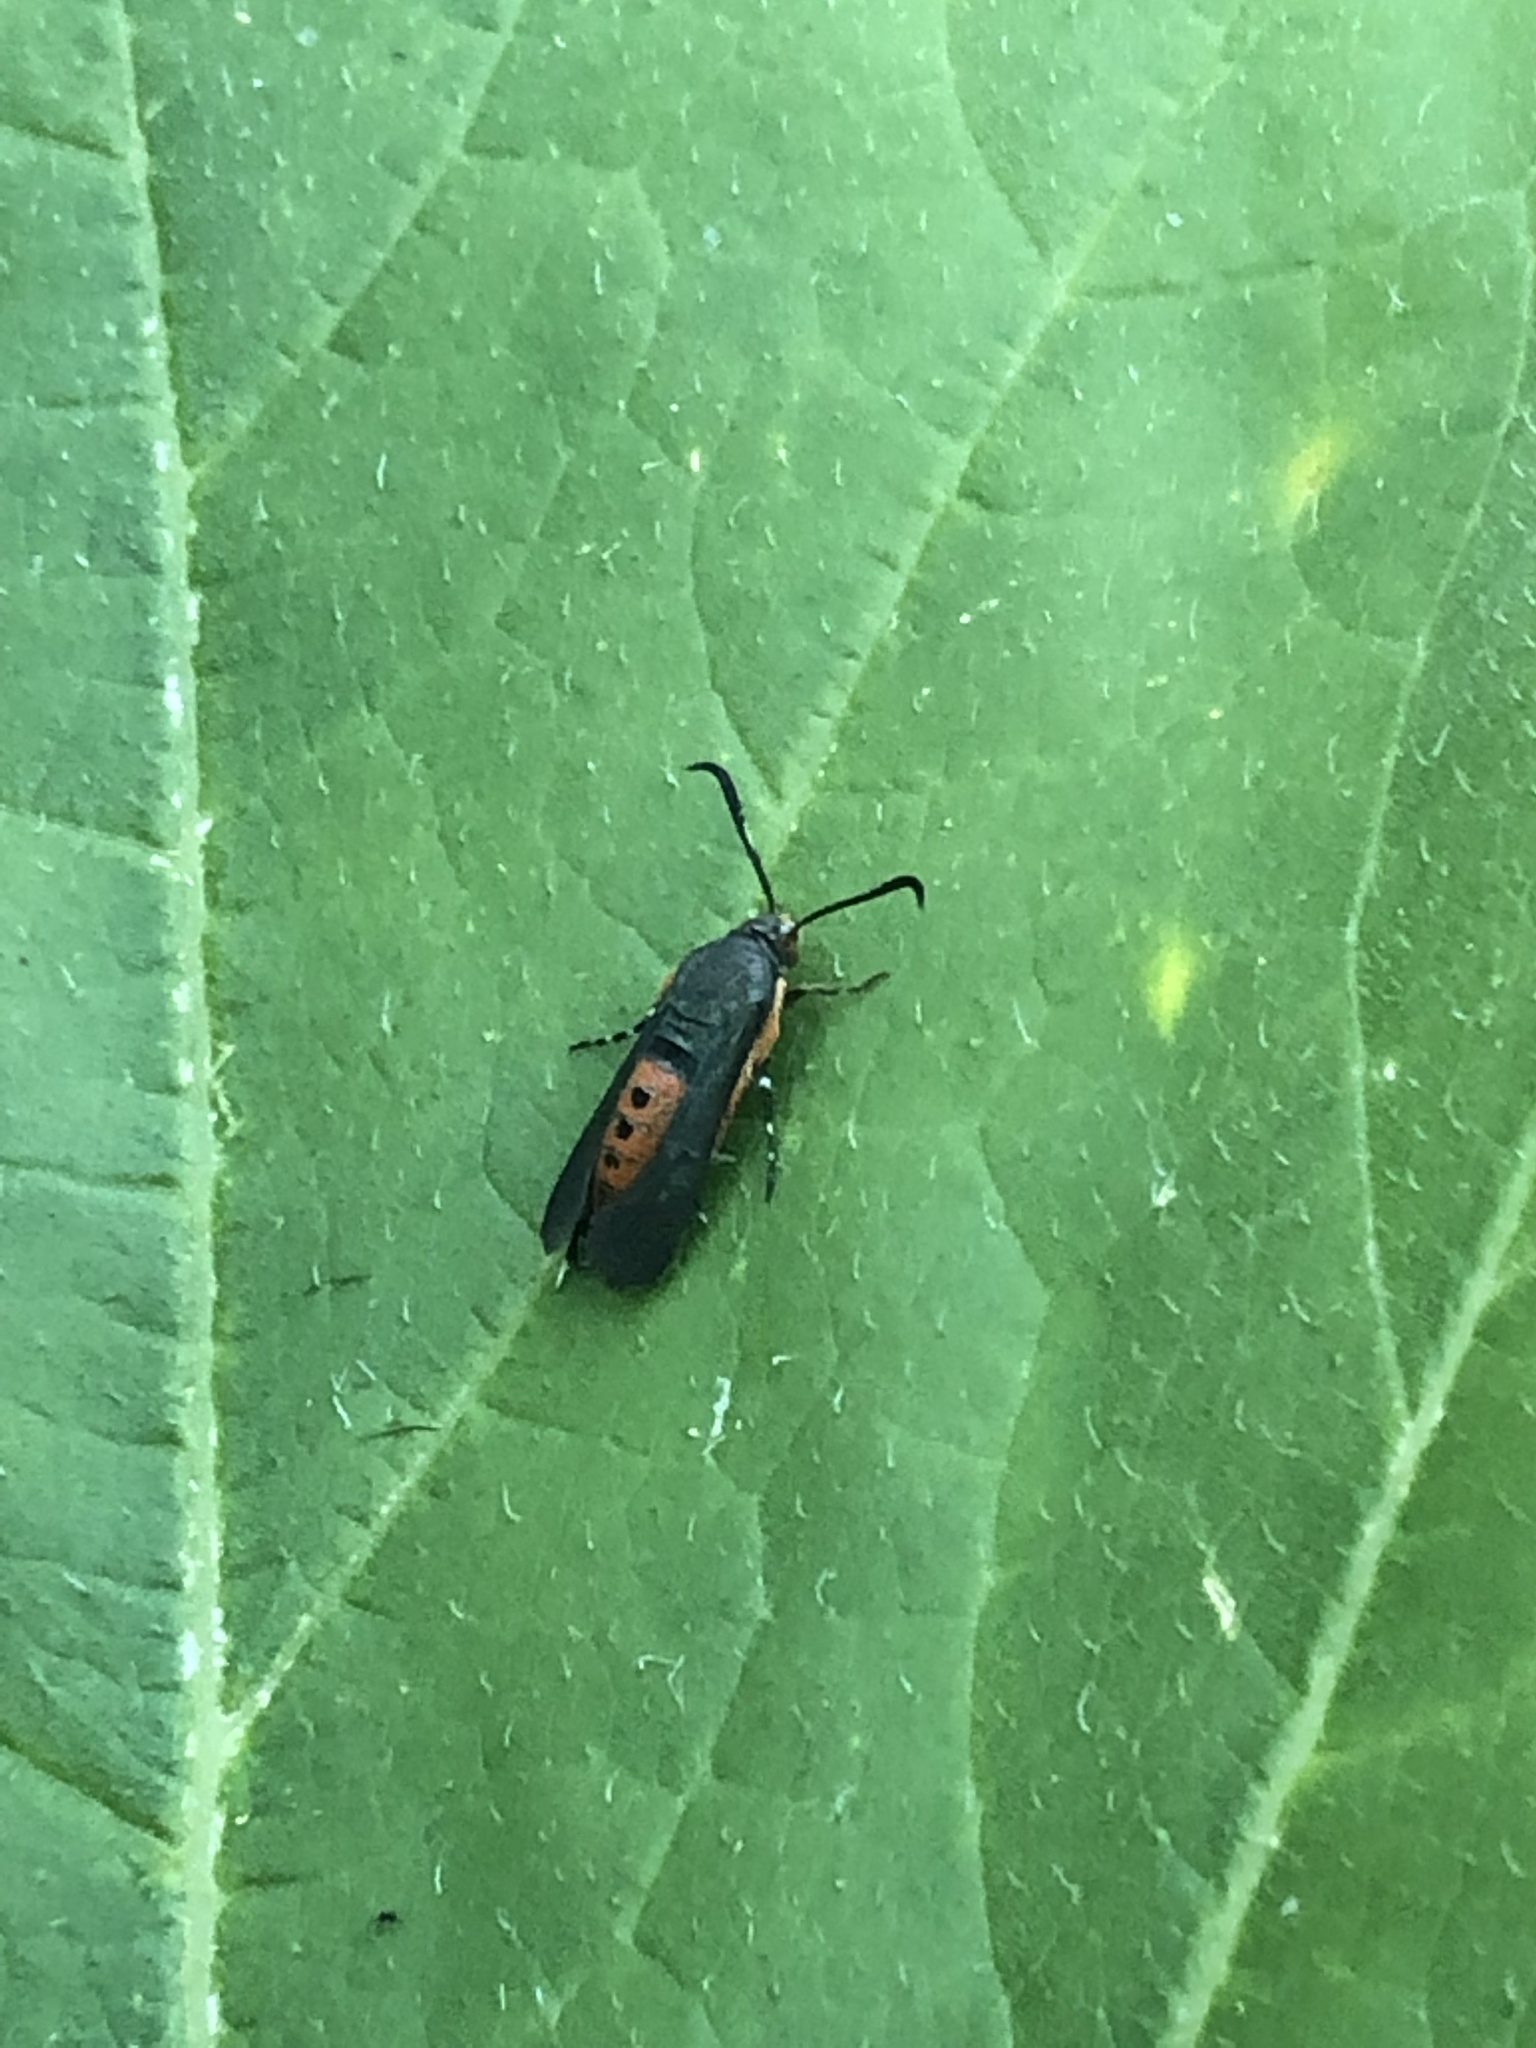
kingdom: Animalia
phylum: Arthropoda
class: Insecta
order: Lepidoptera
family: Sesiidae
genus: Eichlinia
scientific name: Eichlinia cucurbitae
